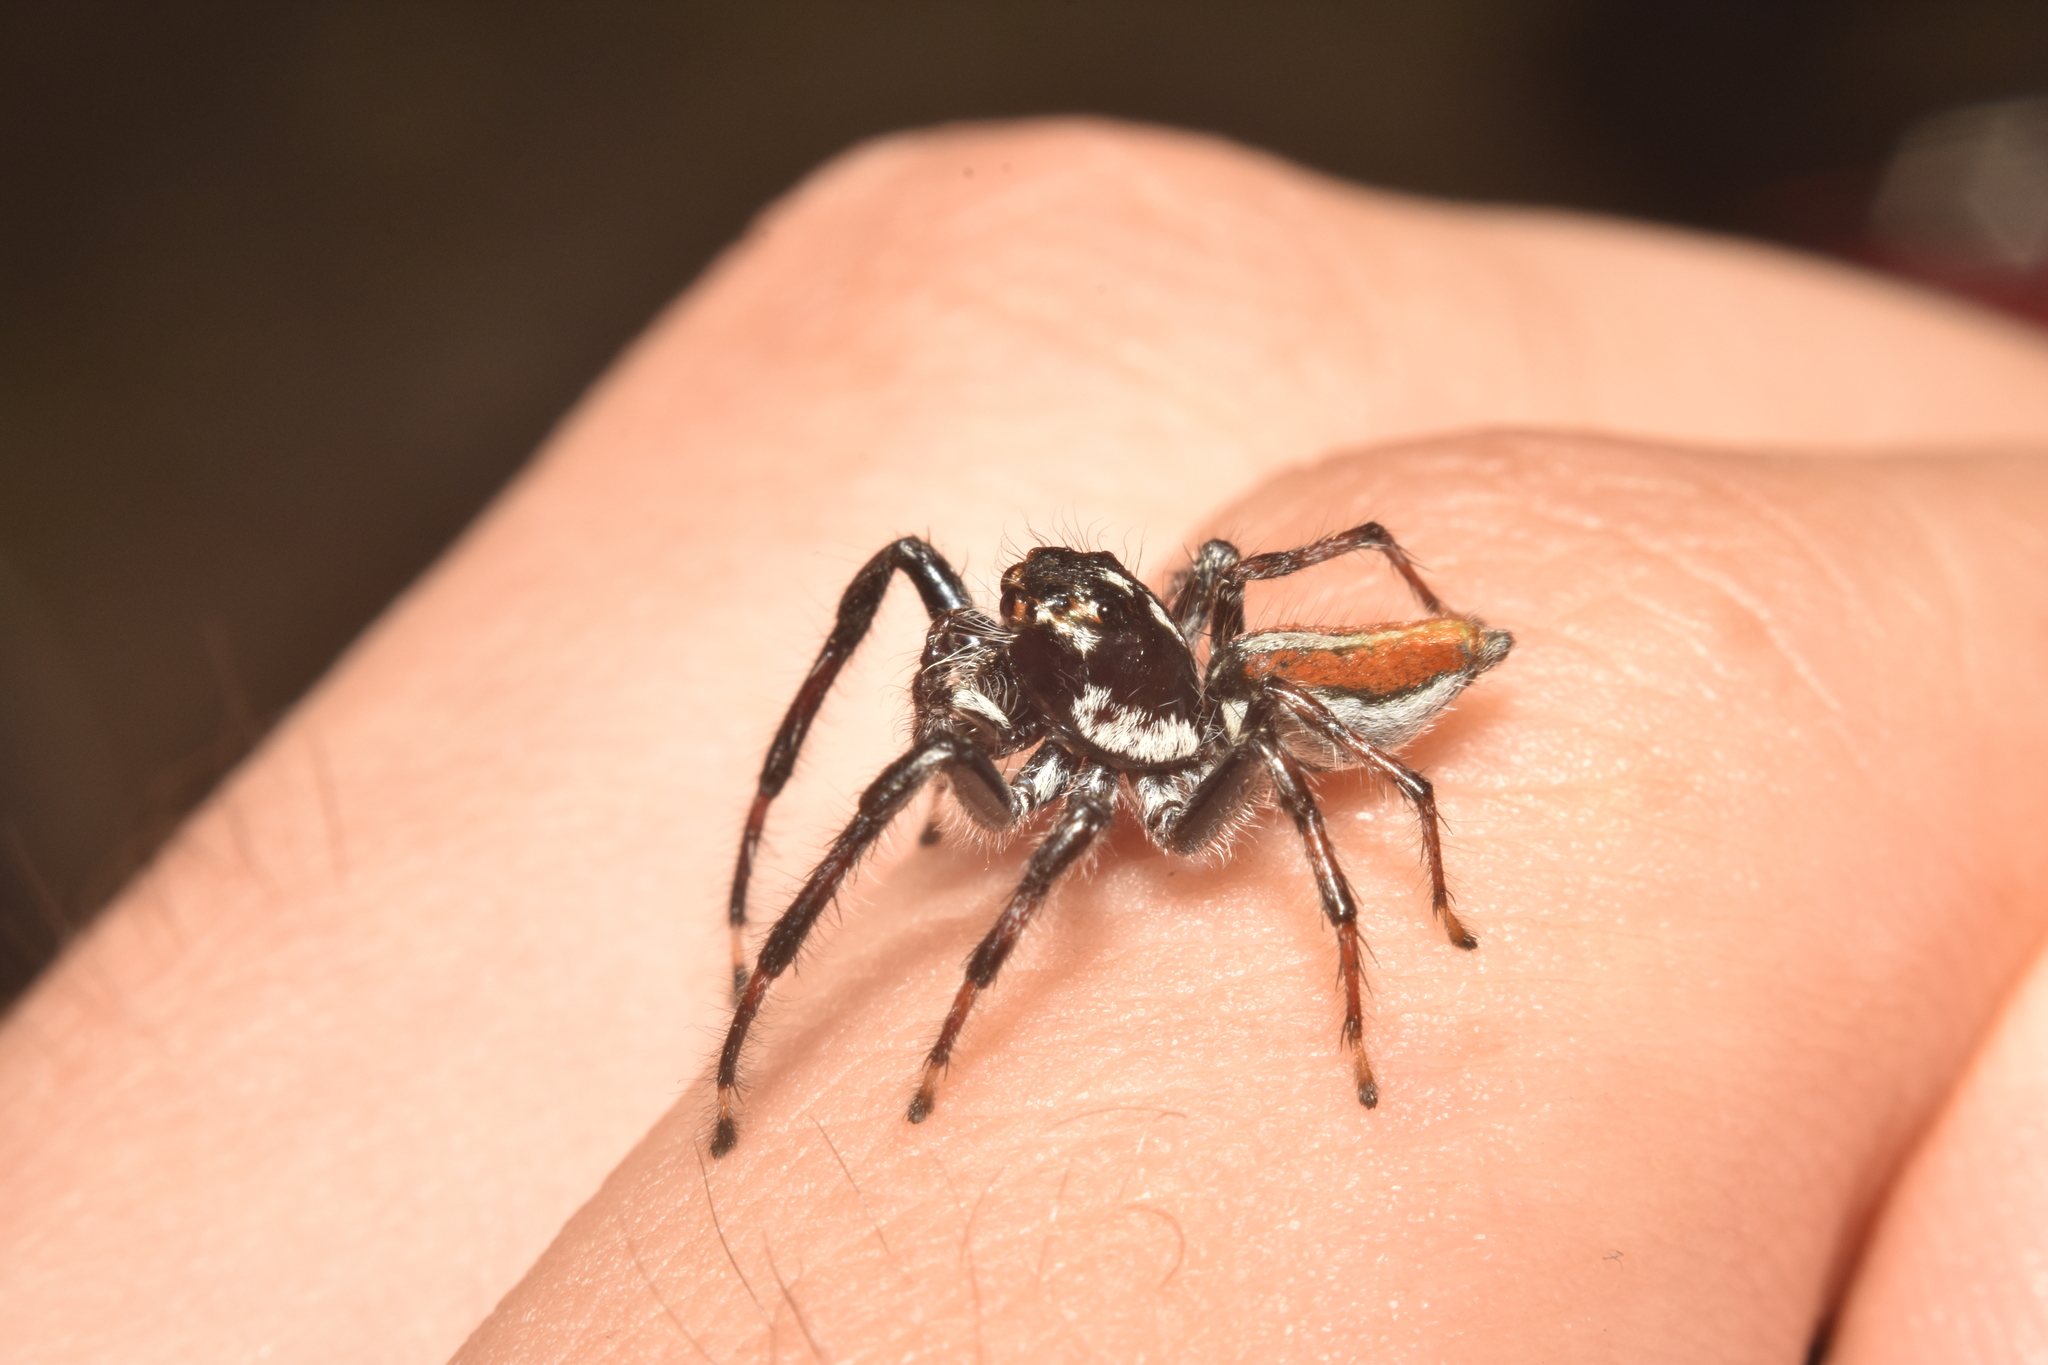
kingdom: Animalia
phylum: Arthropoda
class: Arachnida
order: Araneae
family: Salticidae
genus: Frigga
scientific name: Frigga pratensis
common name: Jumping spiders
